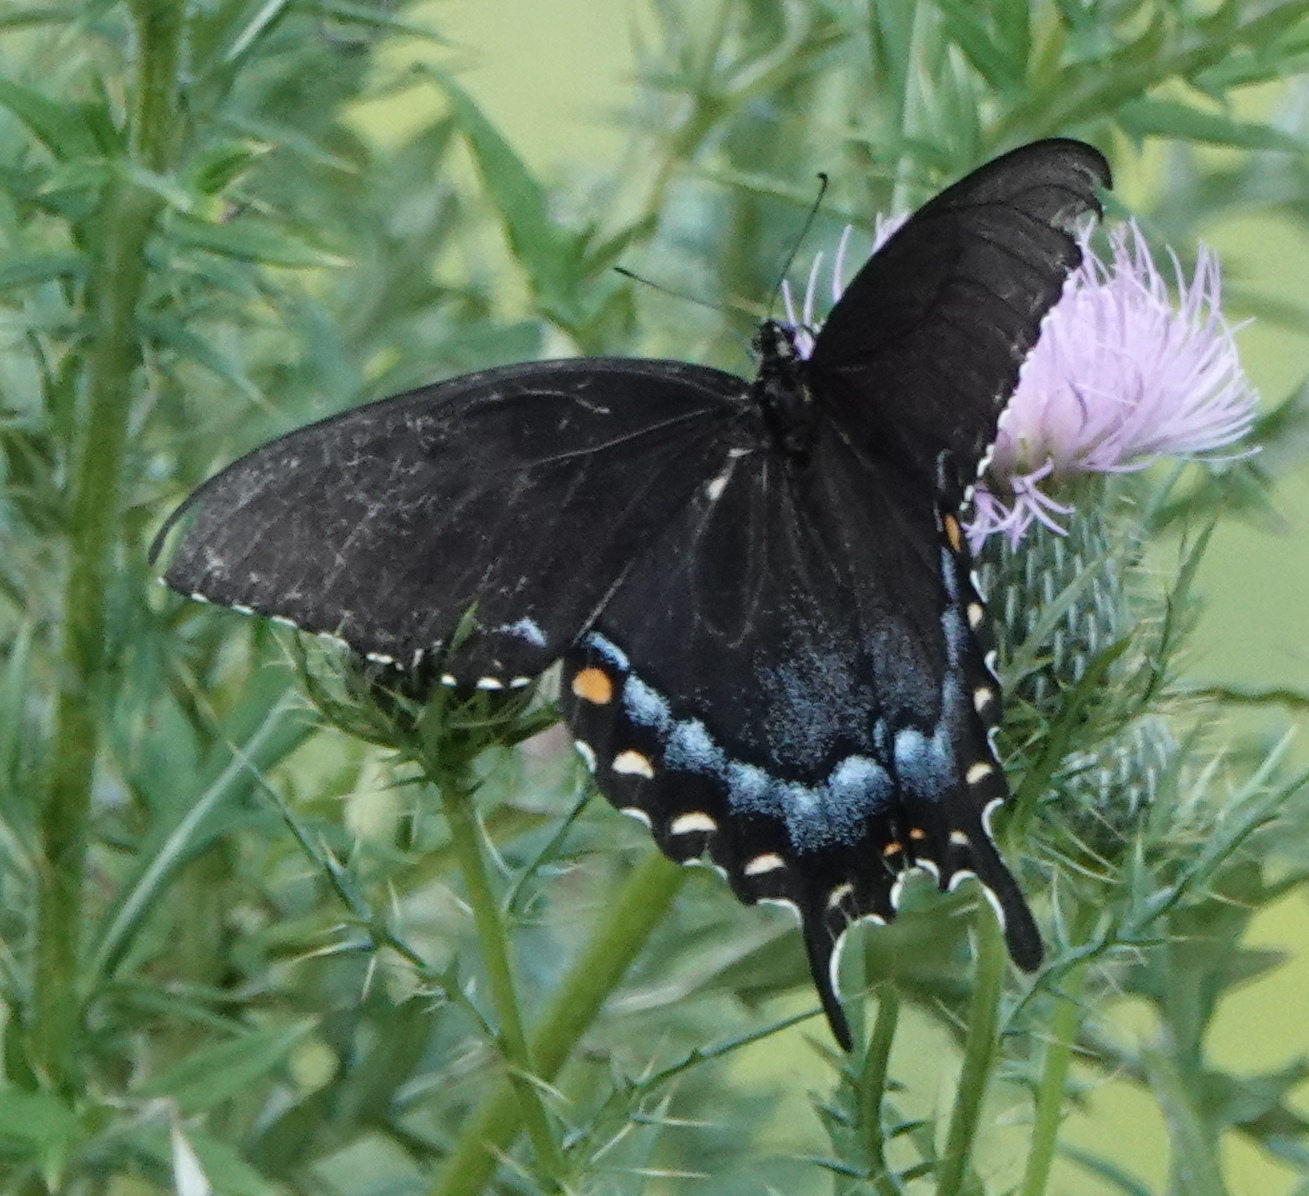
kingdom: Animalia
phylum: Arthropoda
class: Insecta
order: Lepidoptera
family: Papilionidae
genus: Papilio
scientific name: Papilio glaucus
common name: Tiger swallowtail
